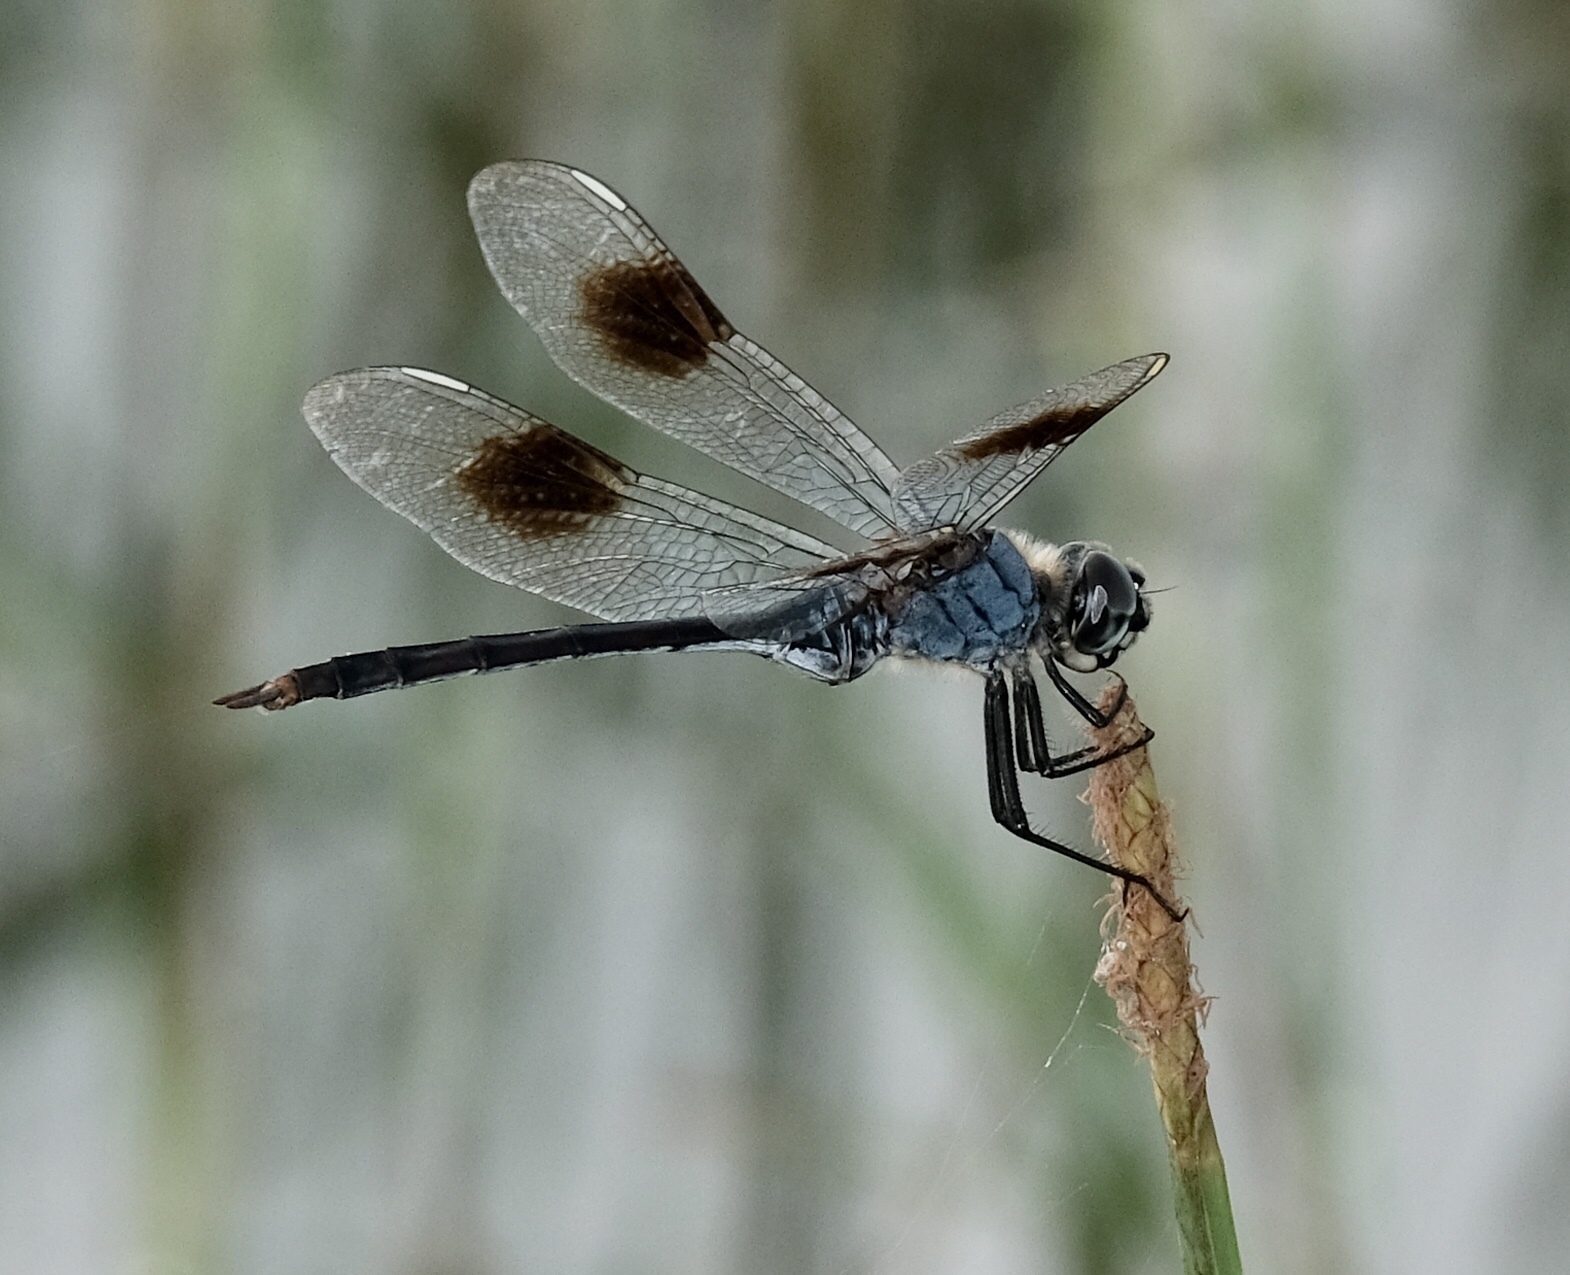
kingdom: Animalia
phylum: Arthropoda
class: Insecta
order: Odonata
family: Libellulidae
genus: Brachymesia
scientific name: Brachymesia gravida
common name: Four-spotted pennant
